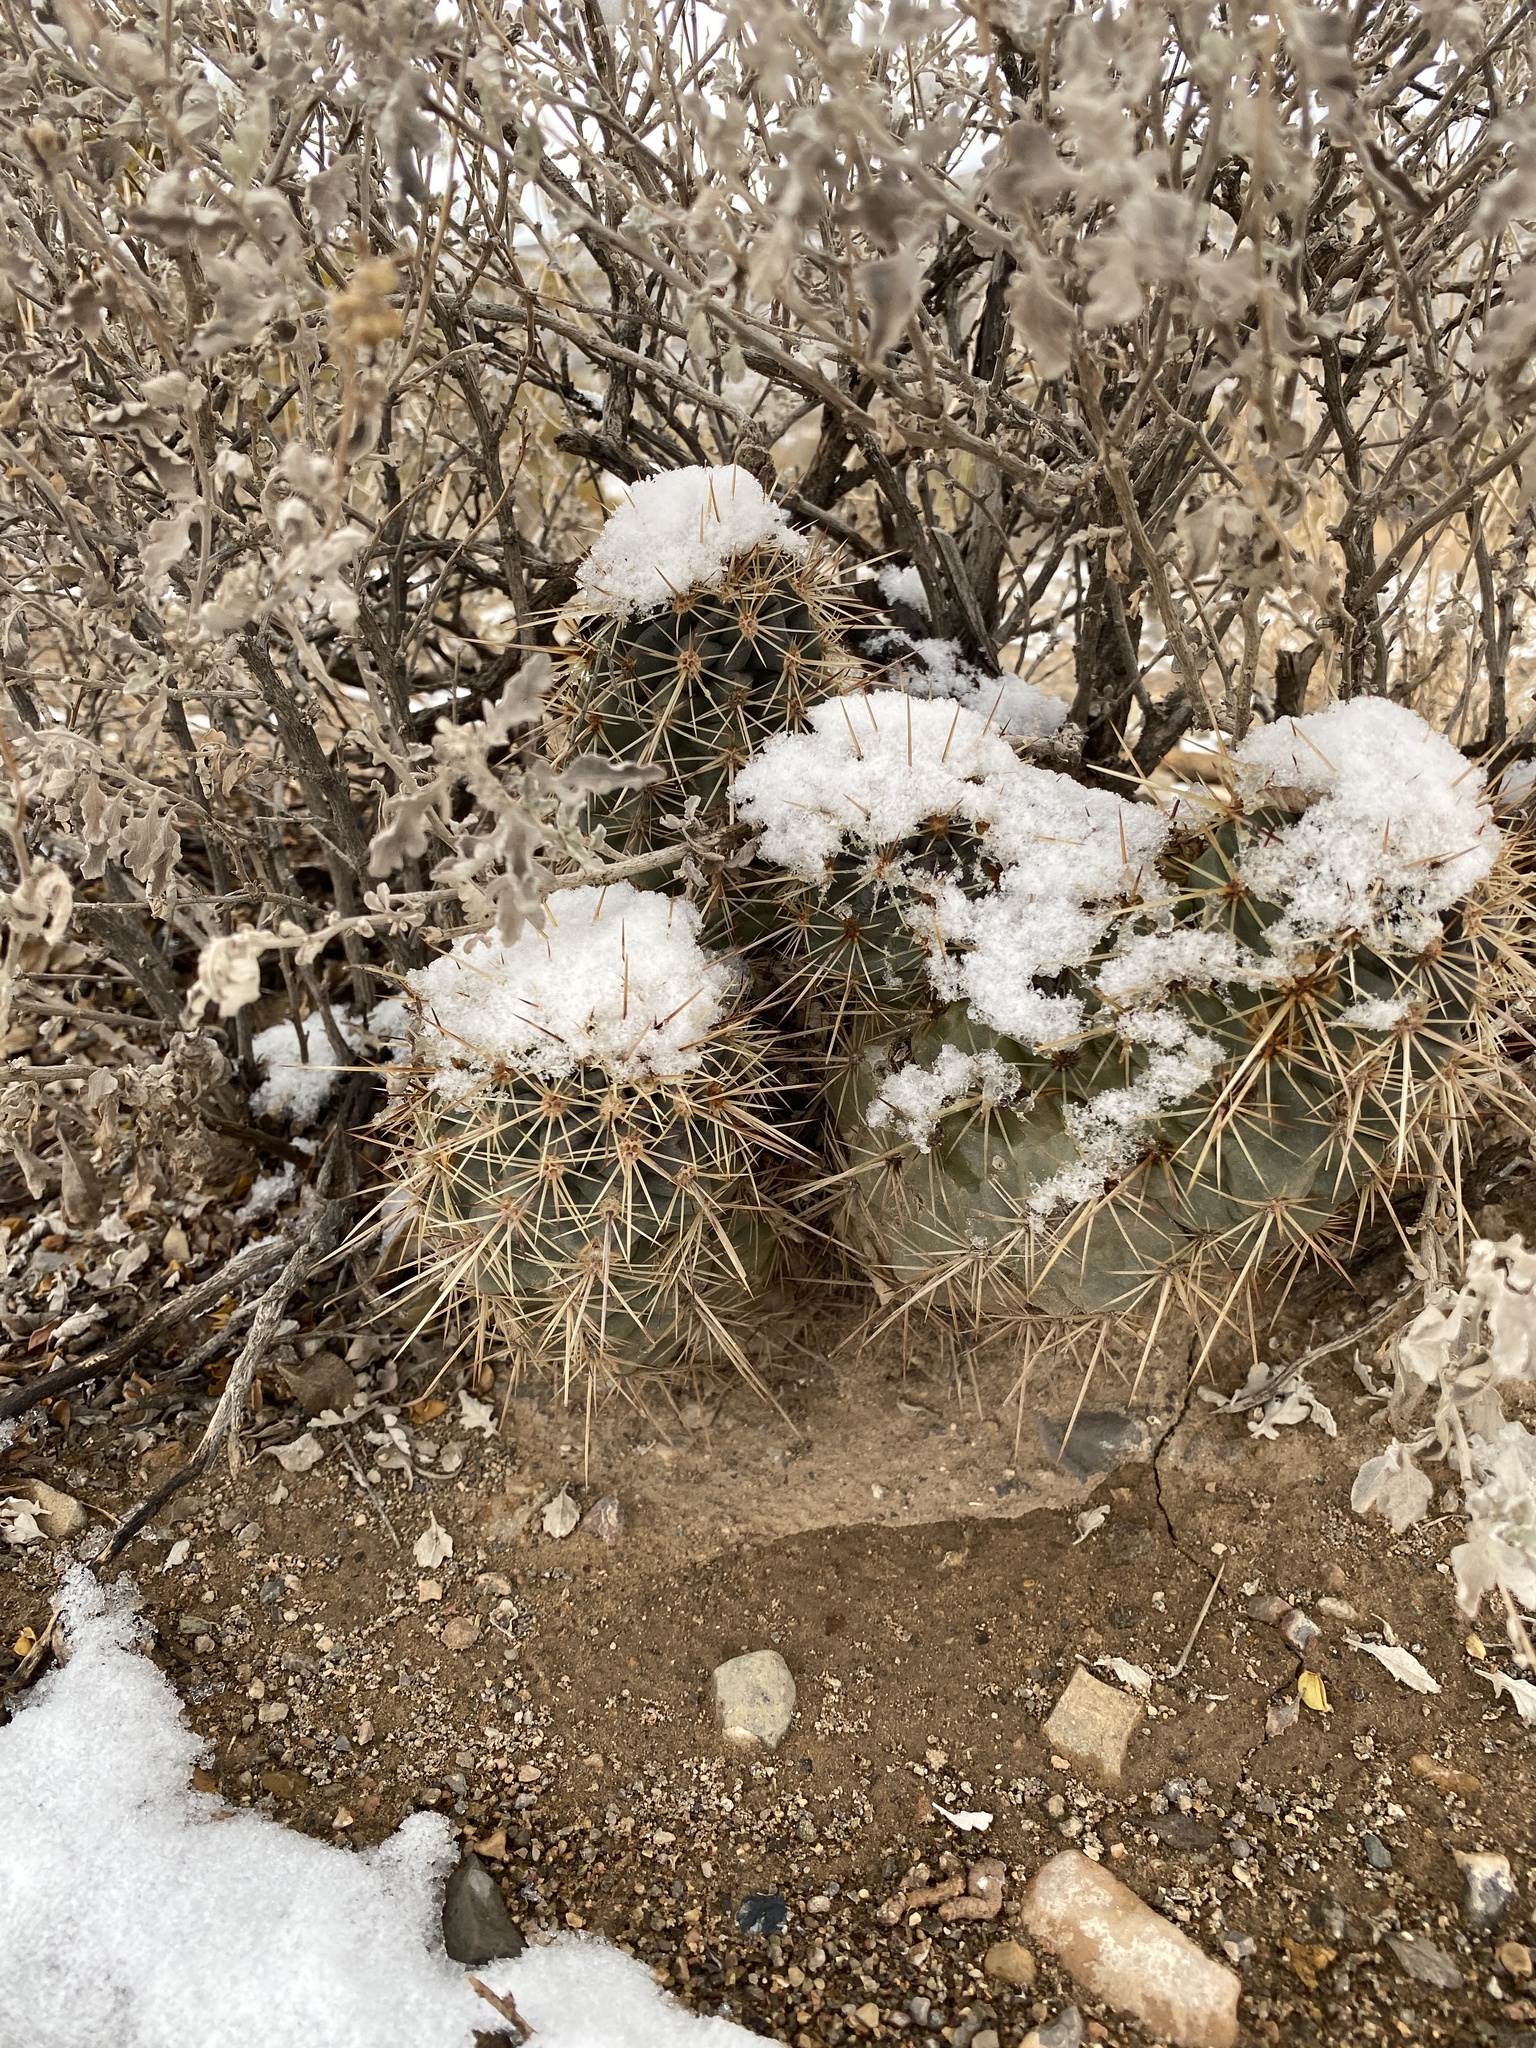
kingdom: Plantae
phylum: Tracheophyta
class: Magnoliopsida
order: Caryophyllales
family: Cactaceae
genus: Echinocereus
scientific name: Echinocereus coccineus
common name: Scarlet hedgehog cactus
